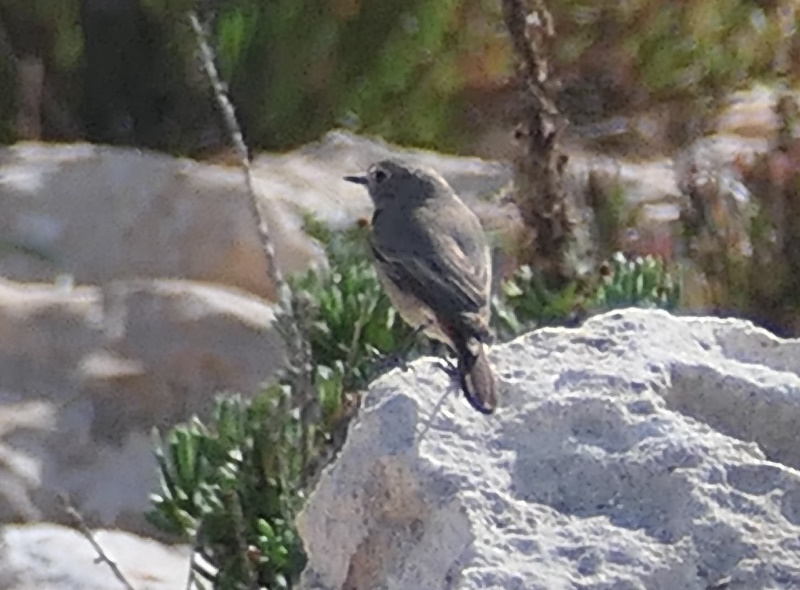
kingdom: Animalia
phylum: Chordata
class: Aves
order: Passeriformes
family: Muscicapidae
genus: Phoenicurus
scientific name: Phoenicurus ochruros
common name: Black redstart
